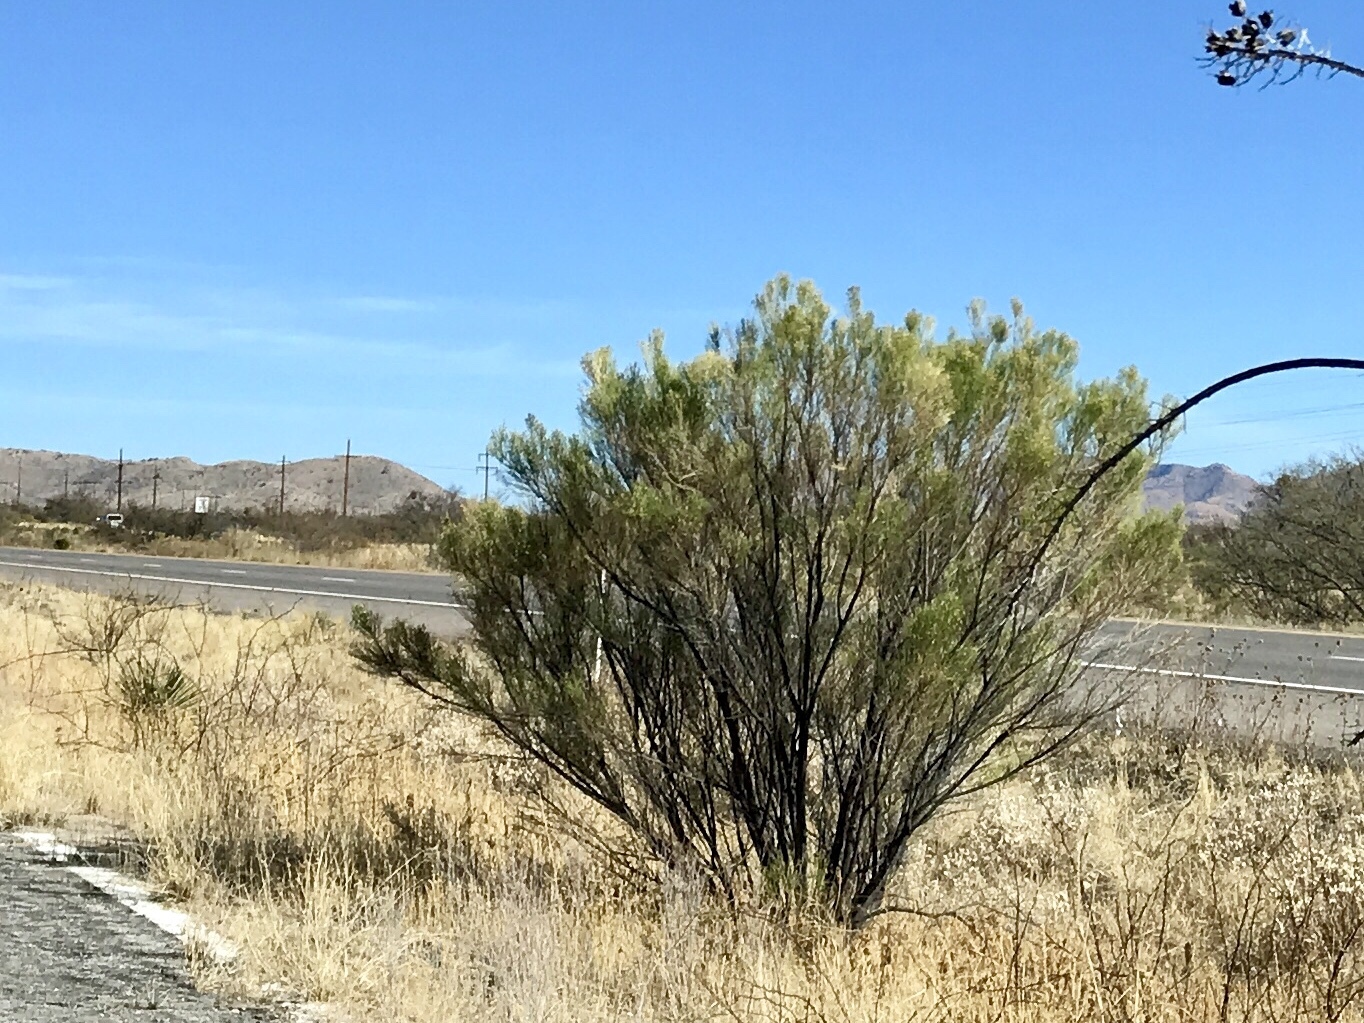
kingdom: Plantae
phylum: Tracheophyta
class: Magnoliopsida
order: Asterales
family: Asteraceae
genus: Baccharis
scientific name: Baccharis sarothroides
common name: Desert-broom
